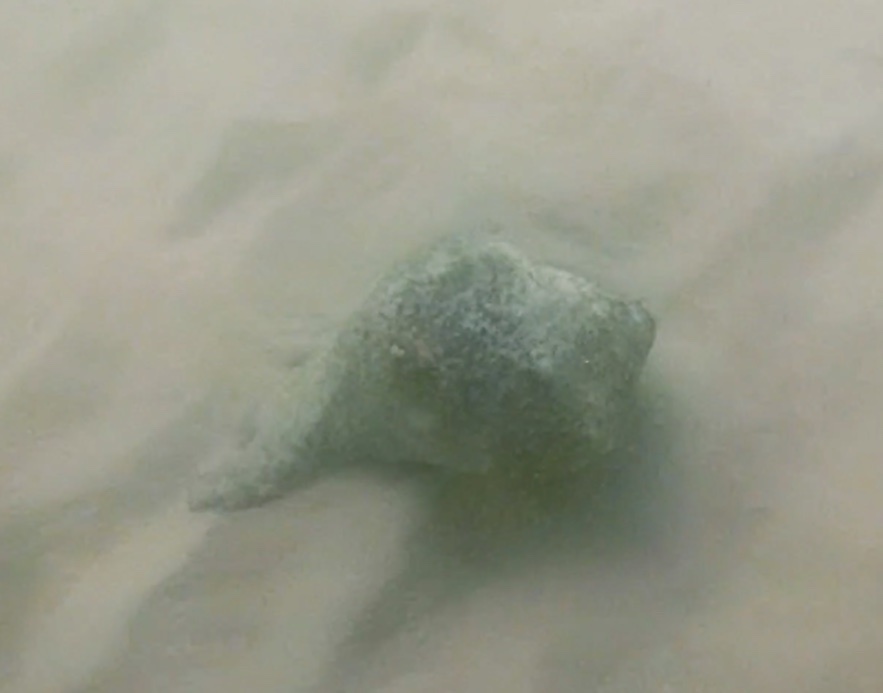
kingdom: Animalia
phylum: Mollusca
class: Gastropoda
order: Neogastropoda
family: Busyconidae
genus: Busycon
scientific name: Busycon carica
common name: Knobbed whelk
